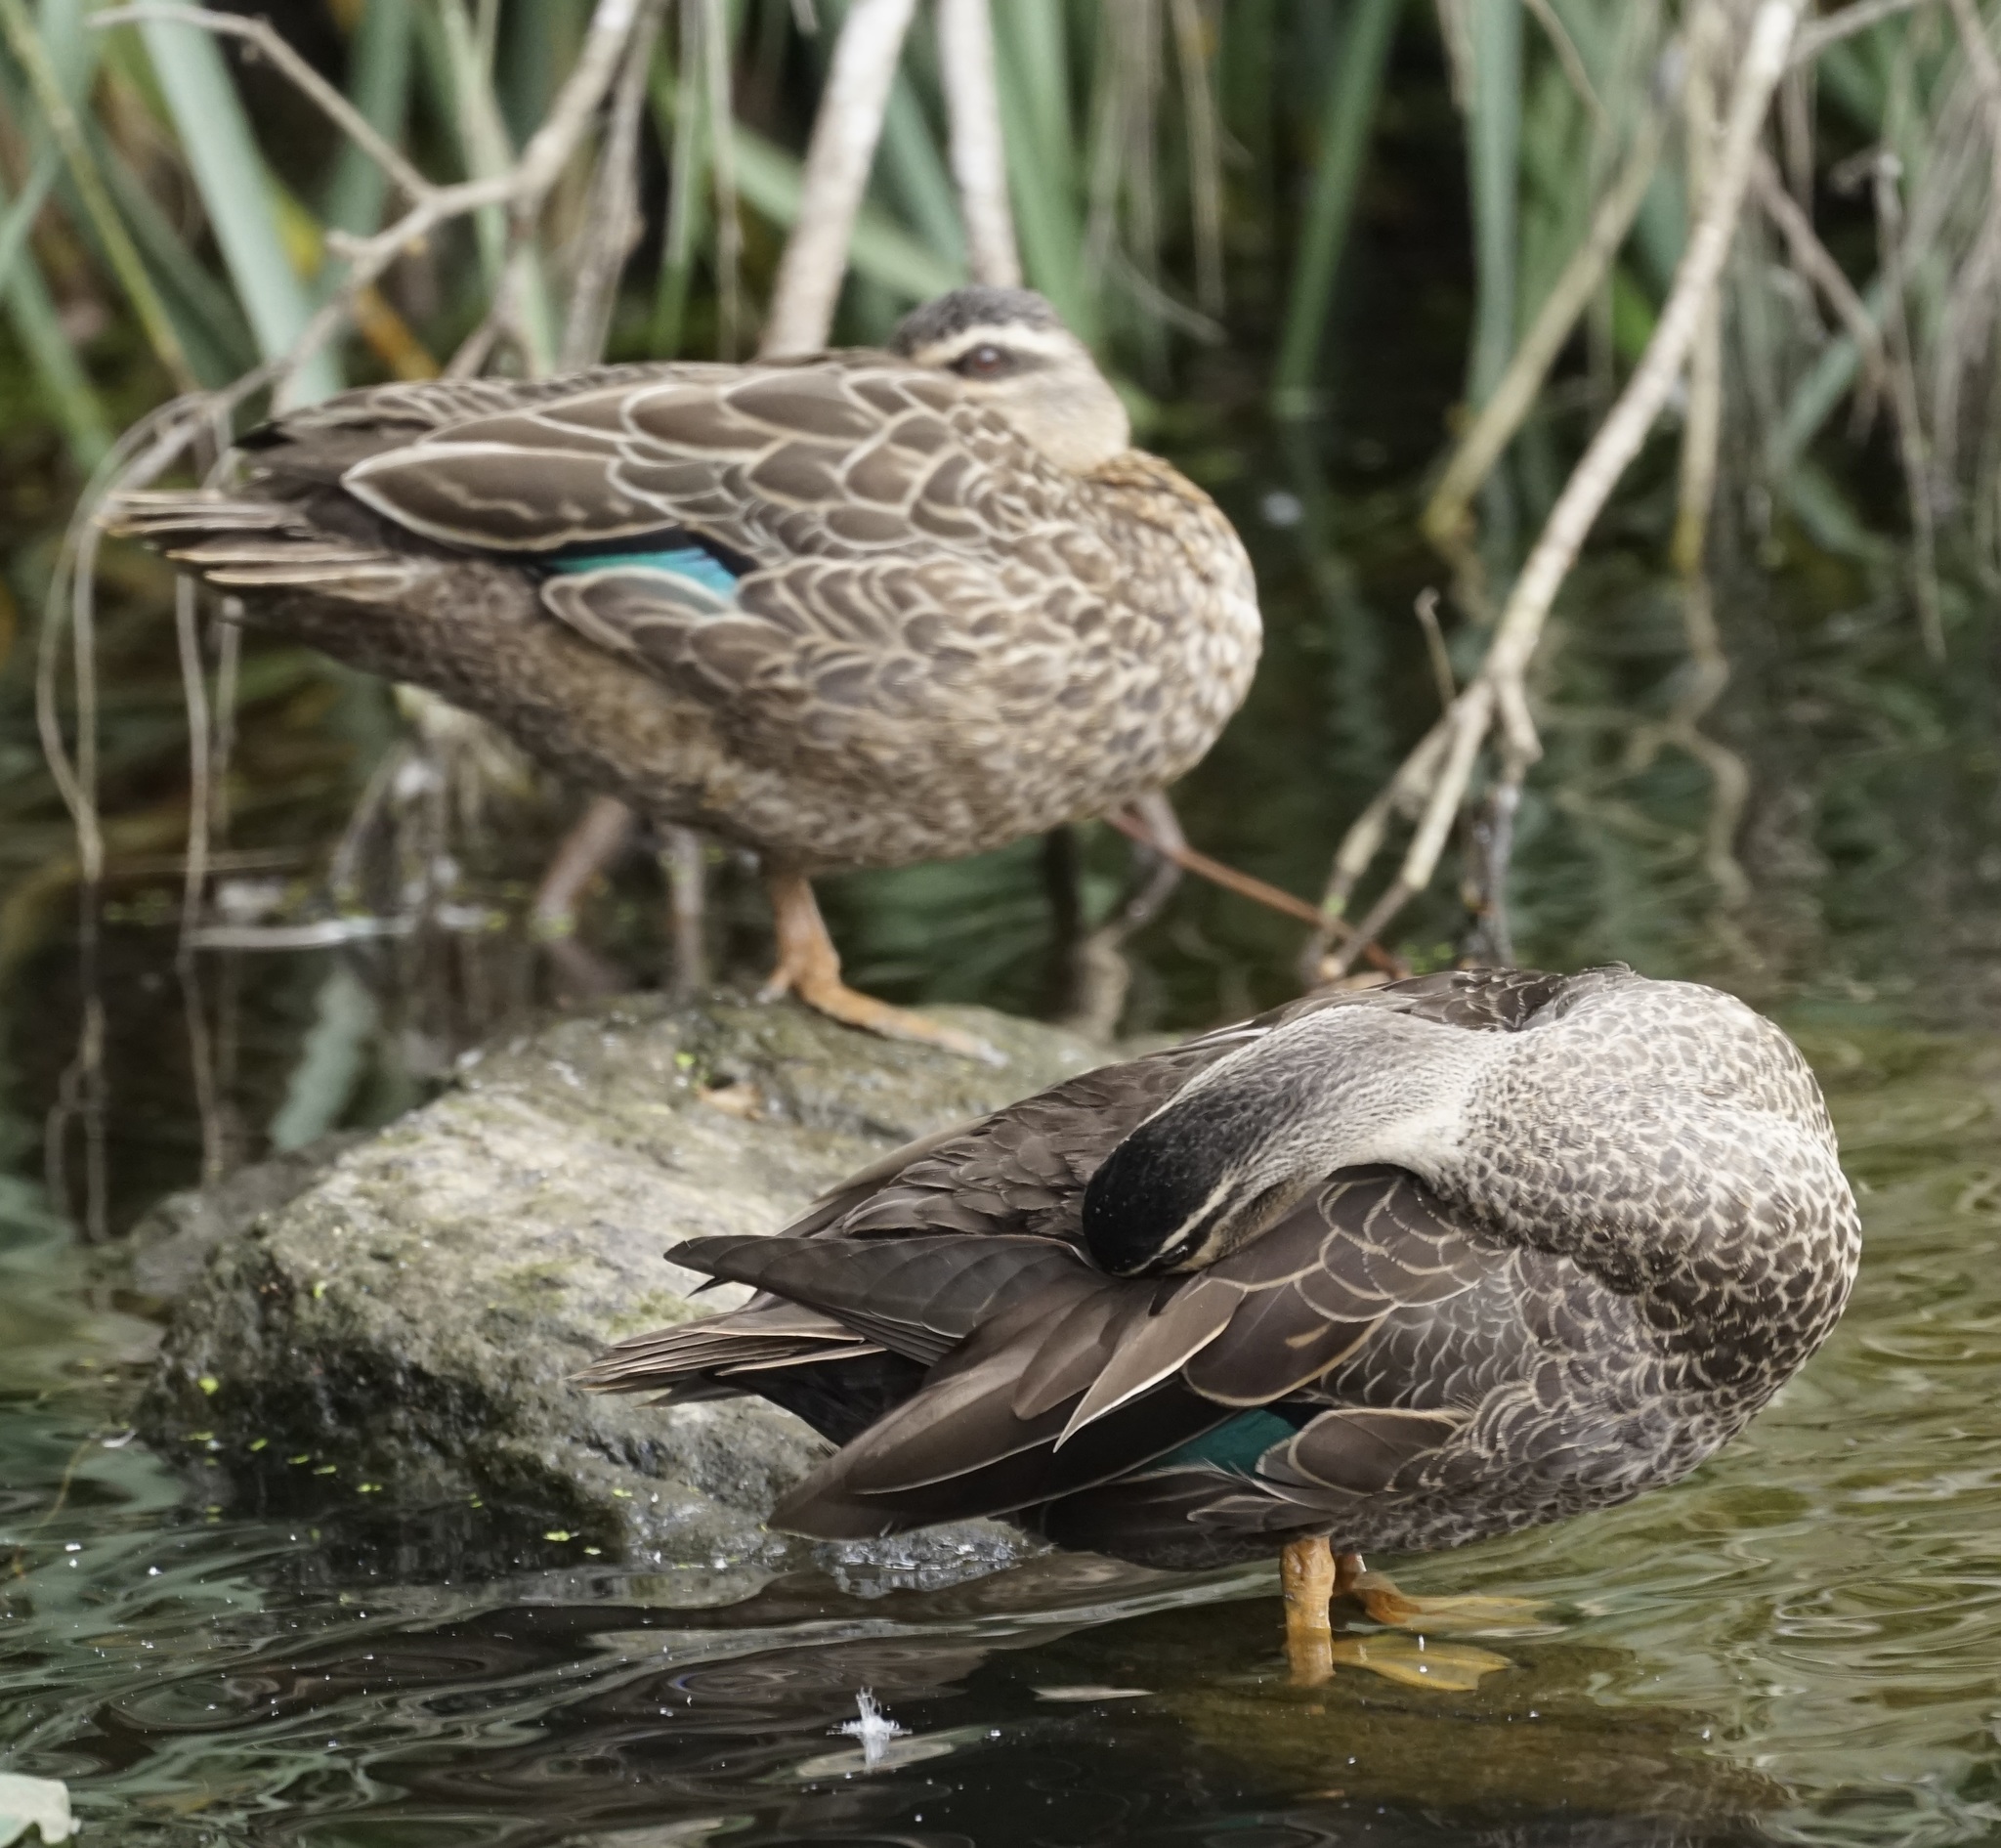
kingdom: Animalia
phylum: Chordata
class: Aves
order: Anseriformes
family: Anatidae
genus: Anas
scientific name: Anas superciliosa
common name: Pacific black duck
